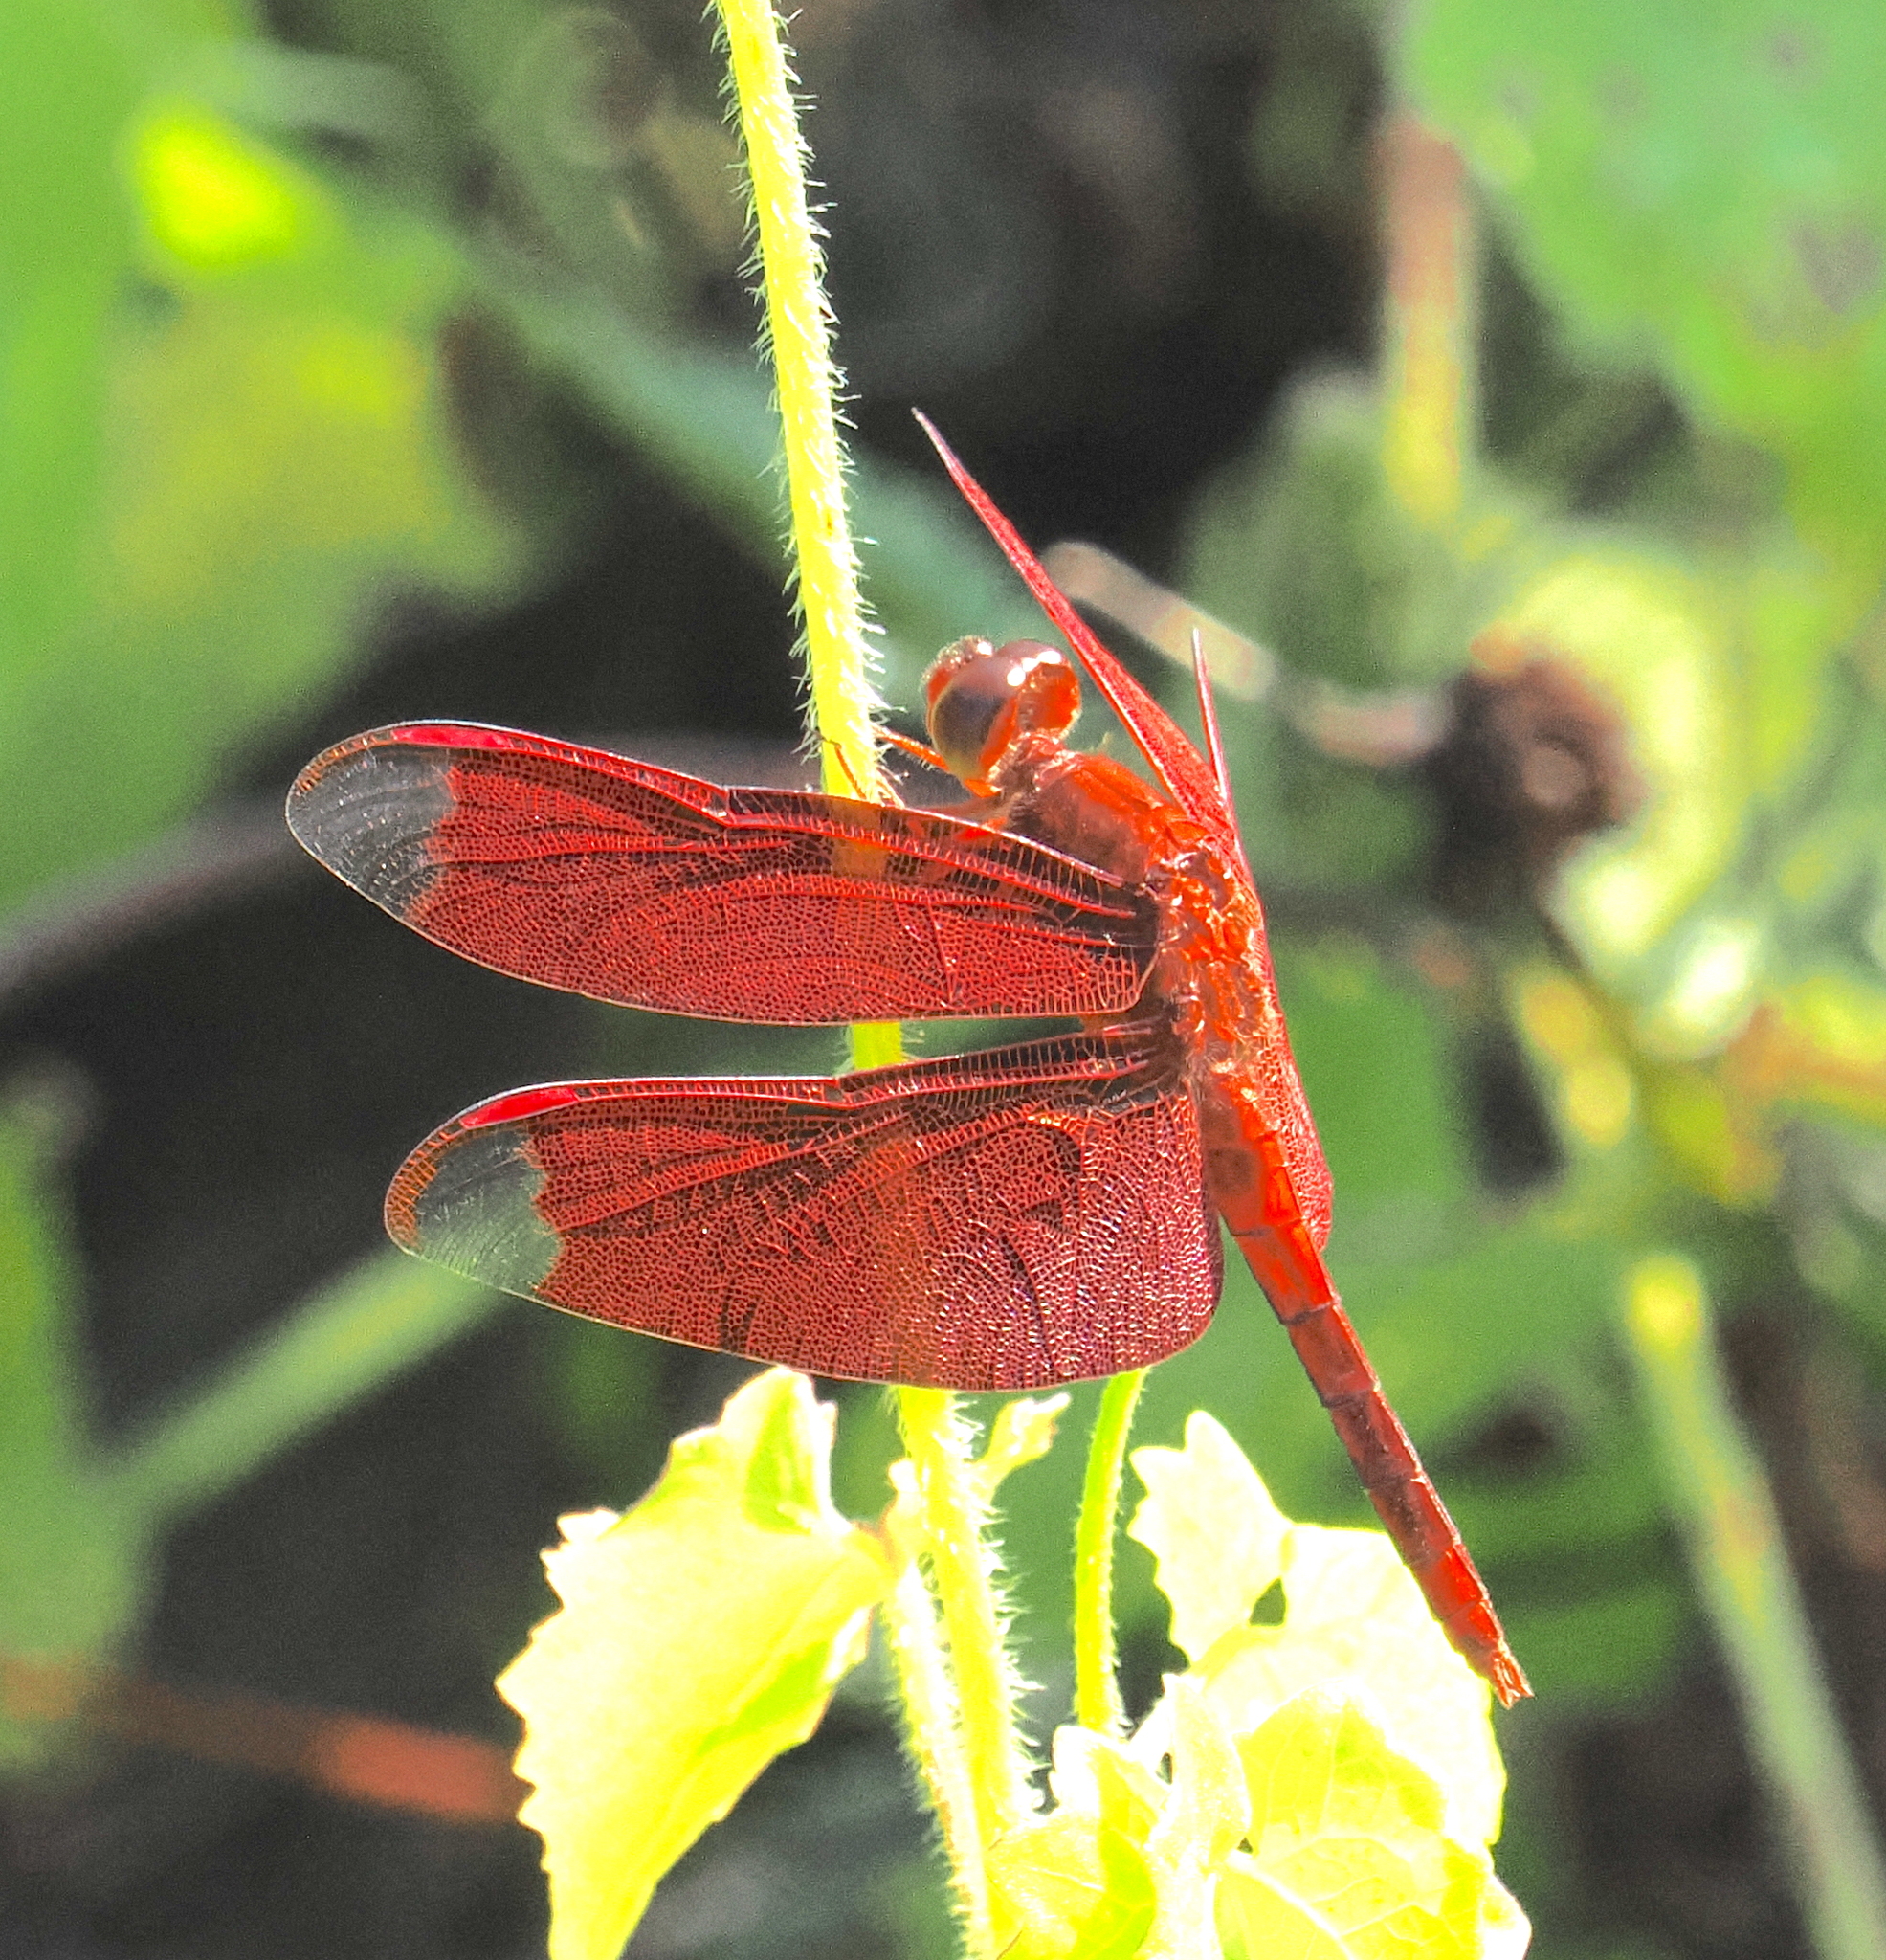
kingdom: Animalia
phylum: Arthropoda
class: Insecta
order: Odonata
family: Libellulidae
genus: Neurothemis
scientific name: Neurothemis fulvia
